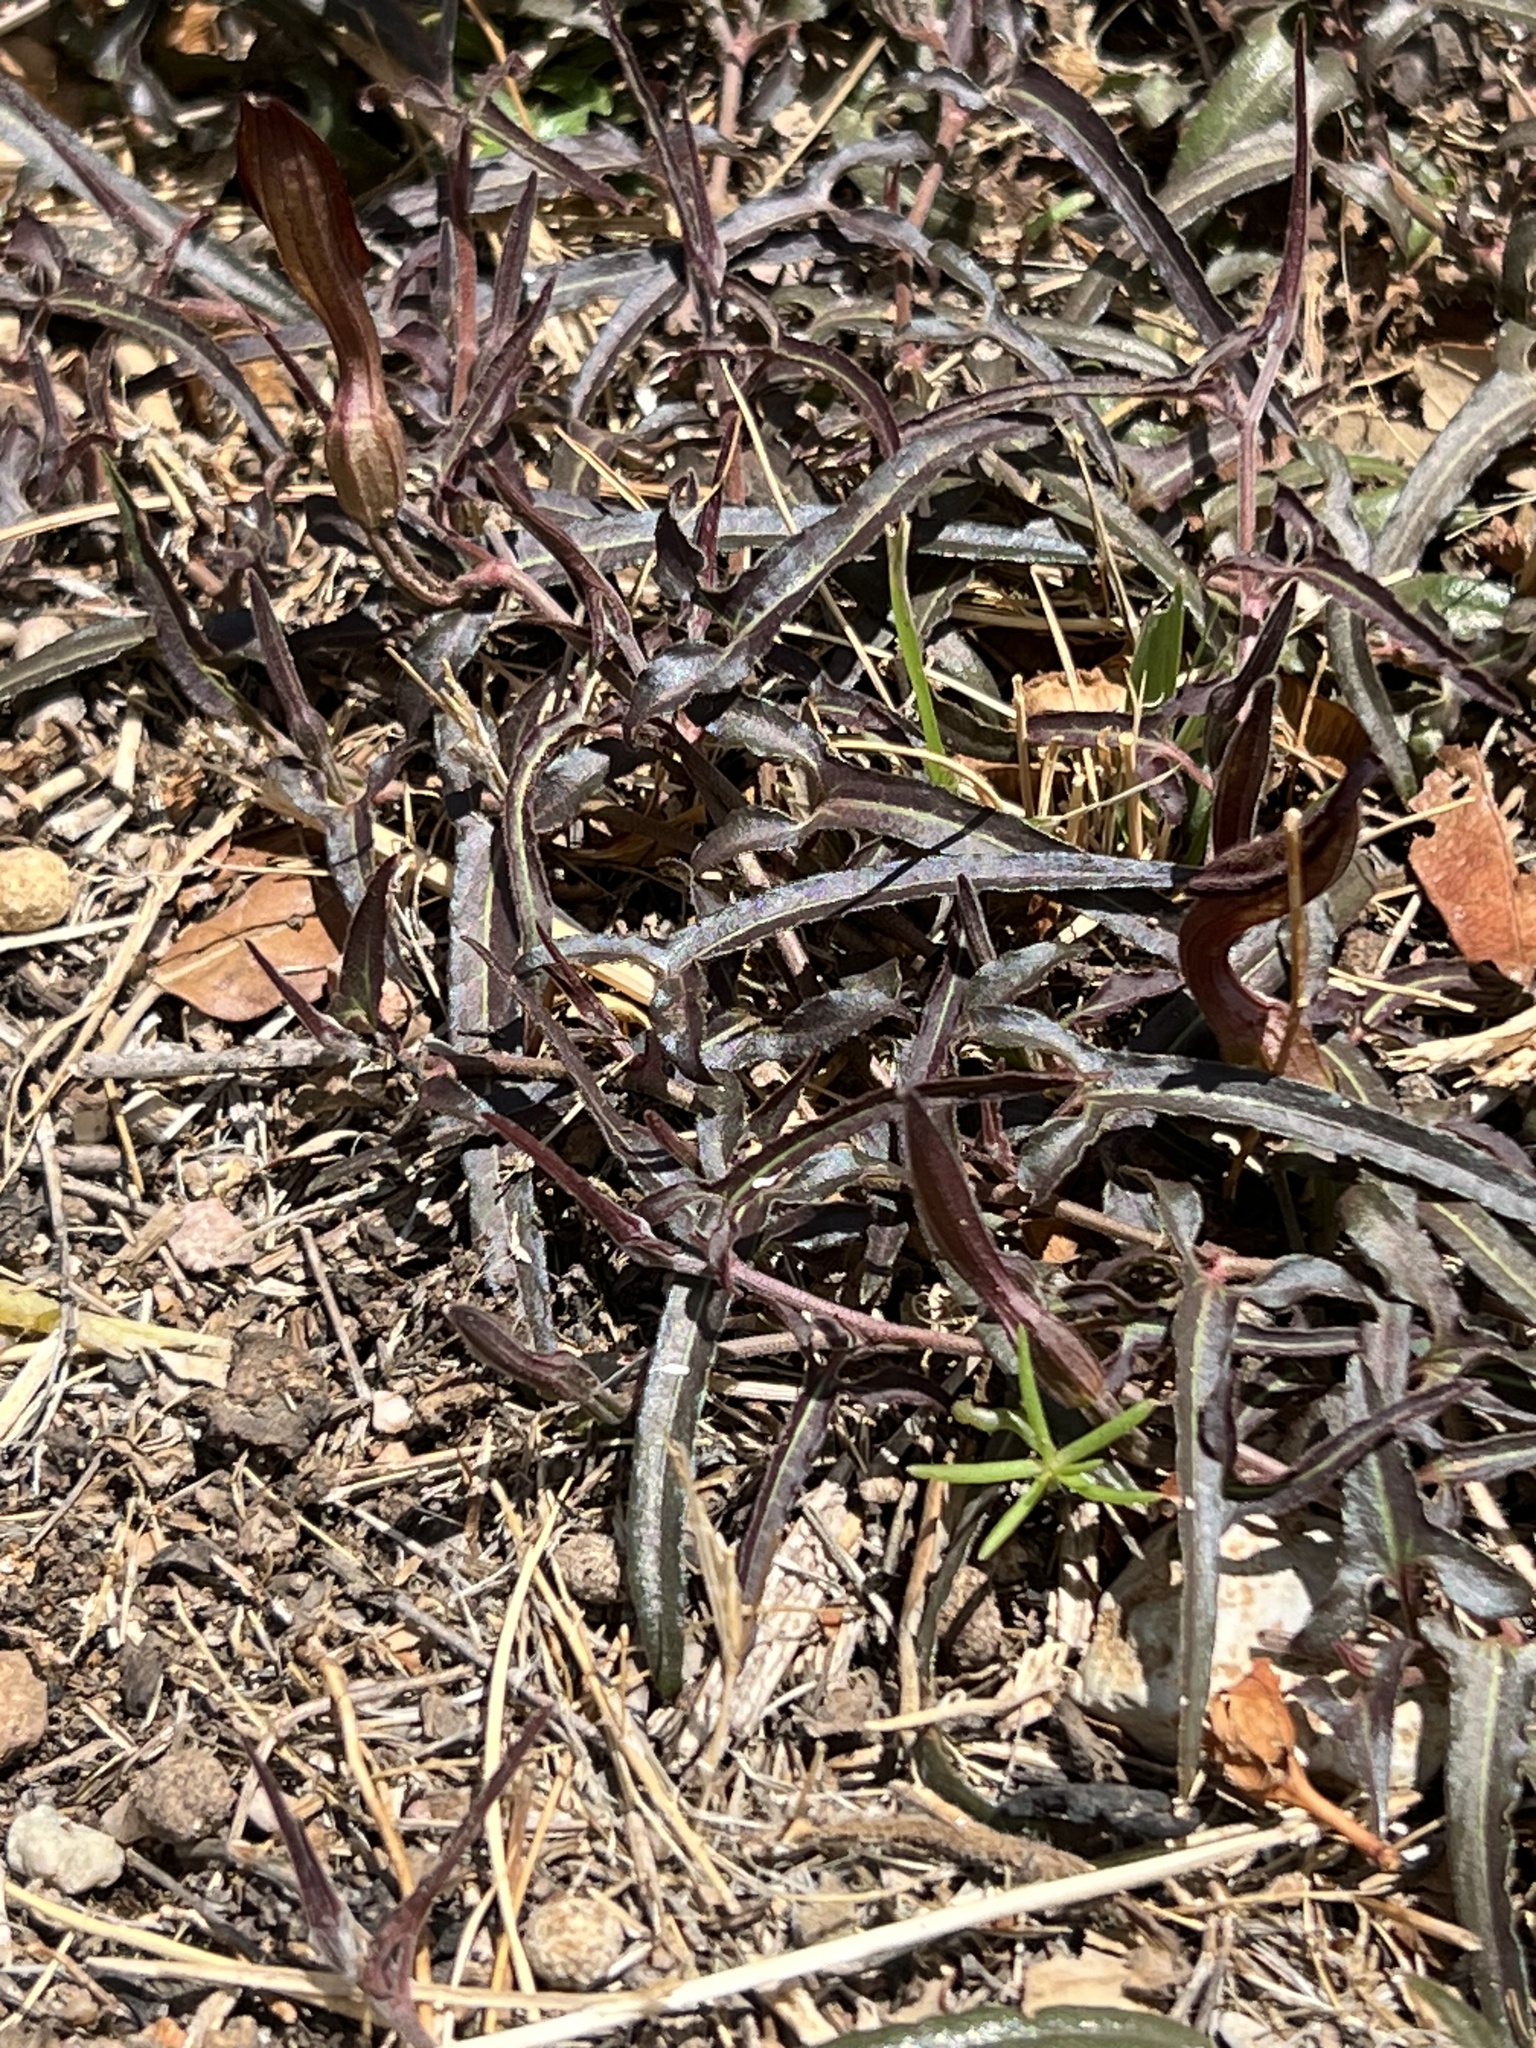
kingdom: Plantae
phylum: Tracheophyta
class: Magnoliopsida
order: Piperales
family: Aristolochiaceae
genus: Aristolochia
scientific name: Aristolochia watsonii
